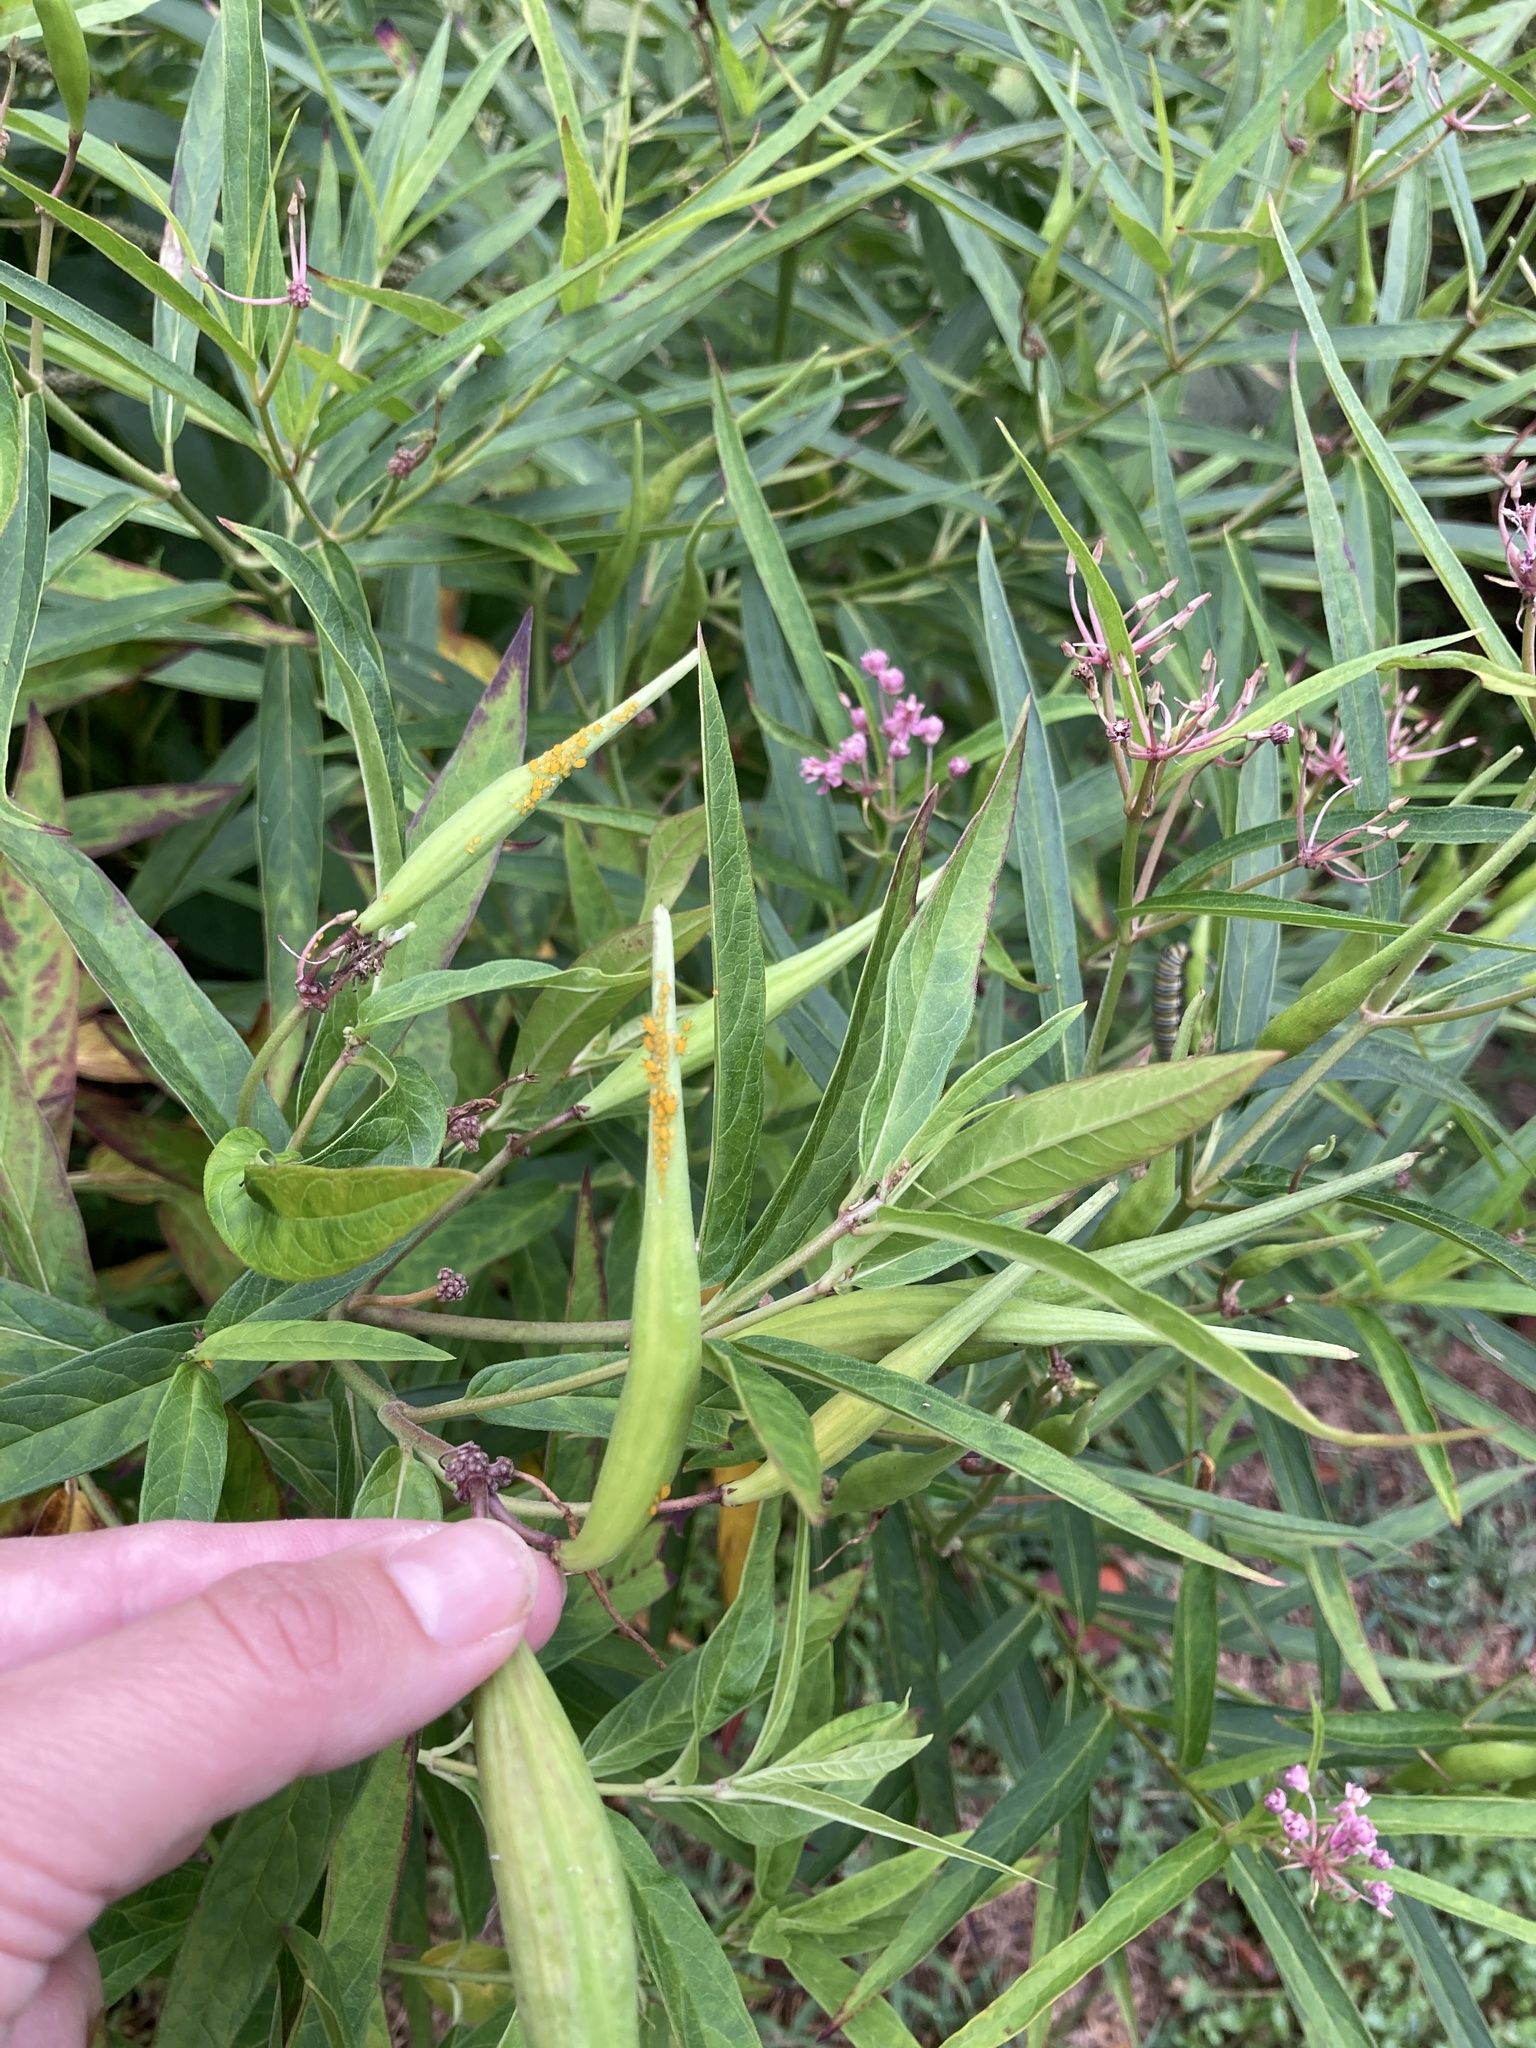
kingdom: Plantae
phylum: Tracheophyta
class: Magnoliopsida
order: Gentianales
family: Apocynaceae
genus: Asclepias
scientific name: Asclepias incarnata
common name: Swamp milkweed
